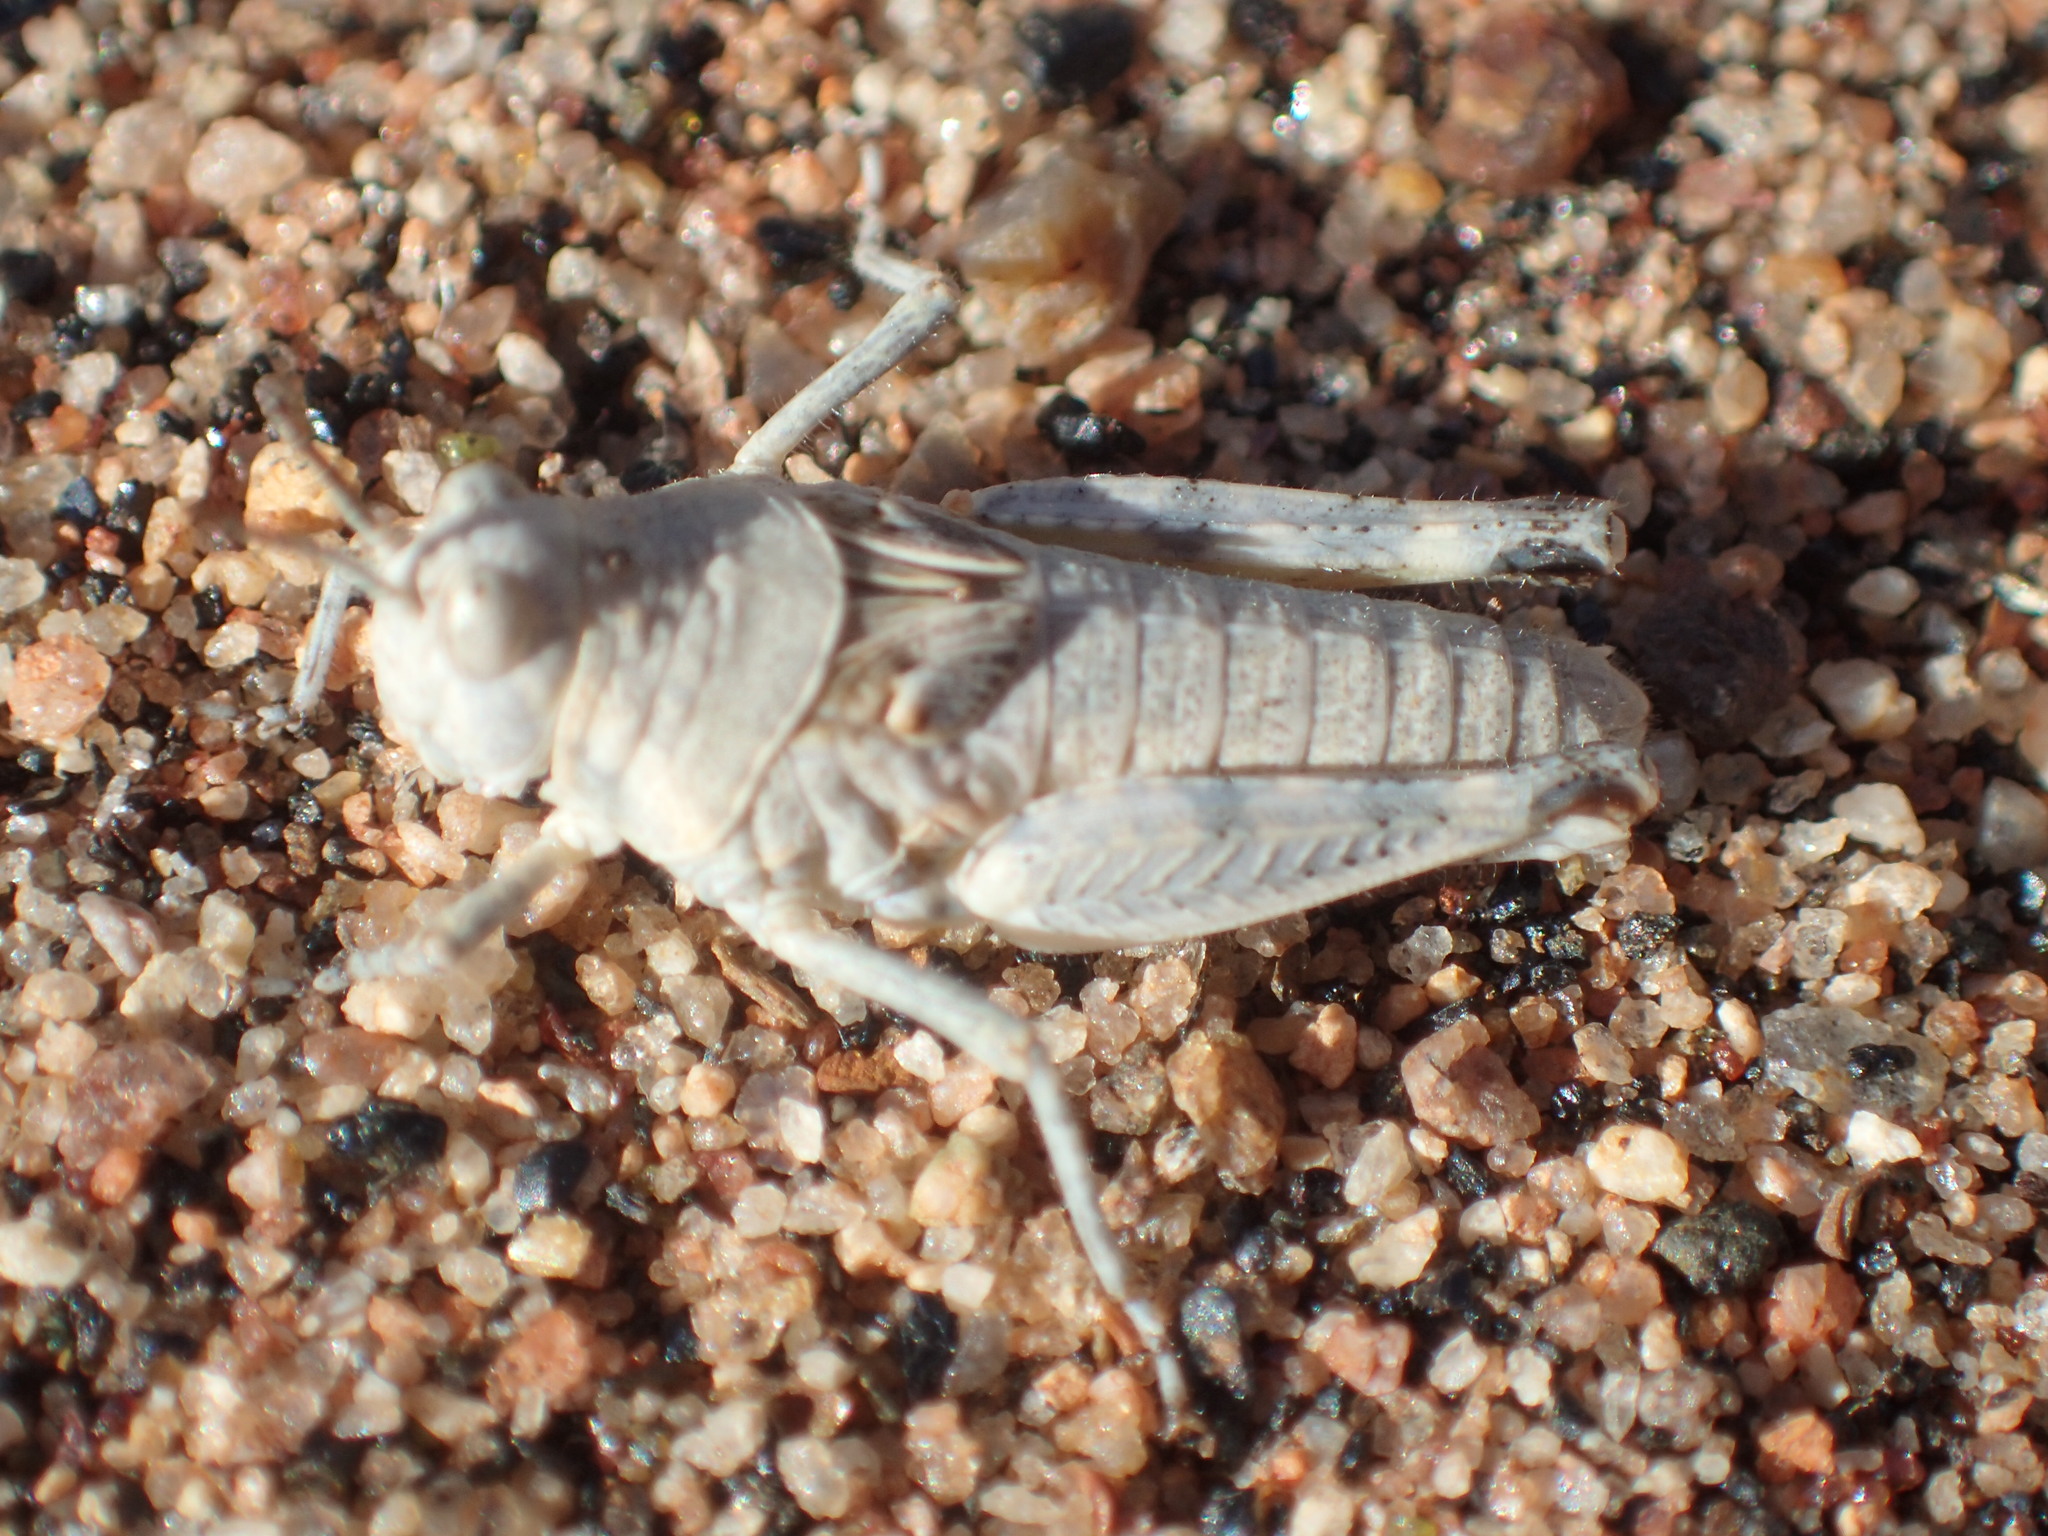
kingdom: Animalia
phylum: Arthropoda
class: Insecta
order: Orthoptera
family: Acrididae
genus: Urnisa
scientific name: Urnisa guttulosa
